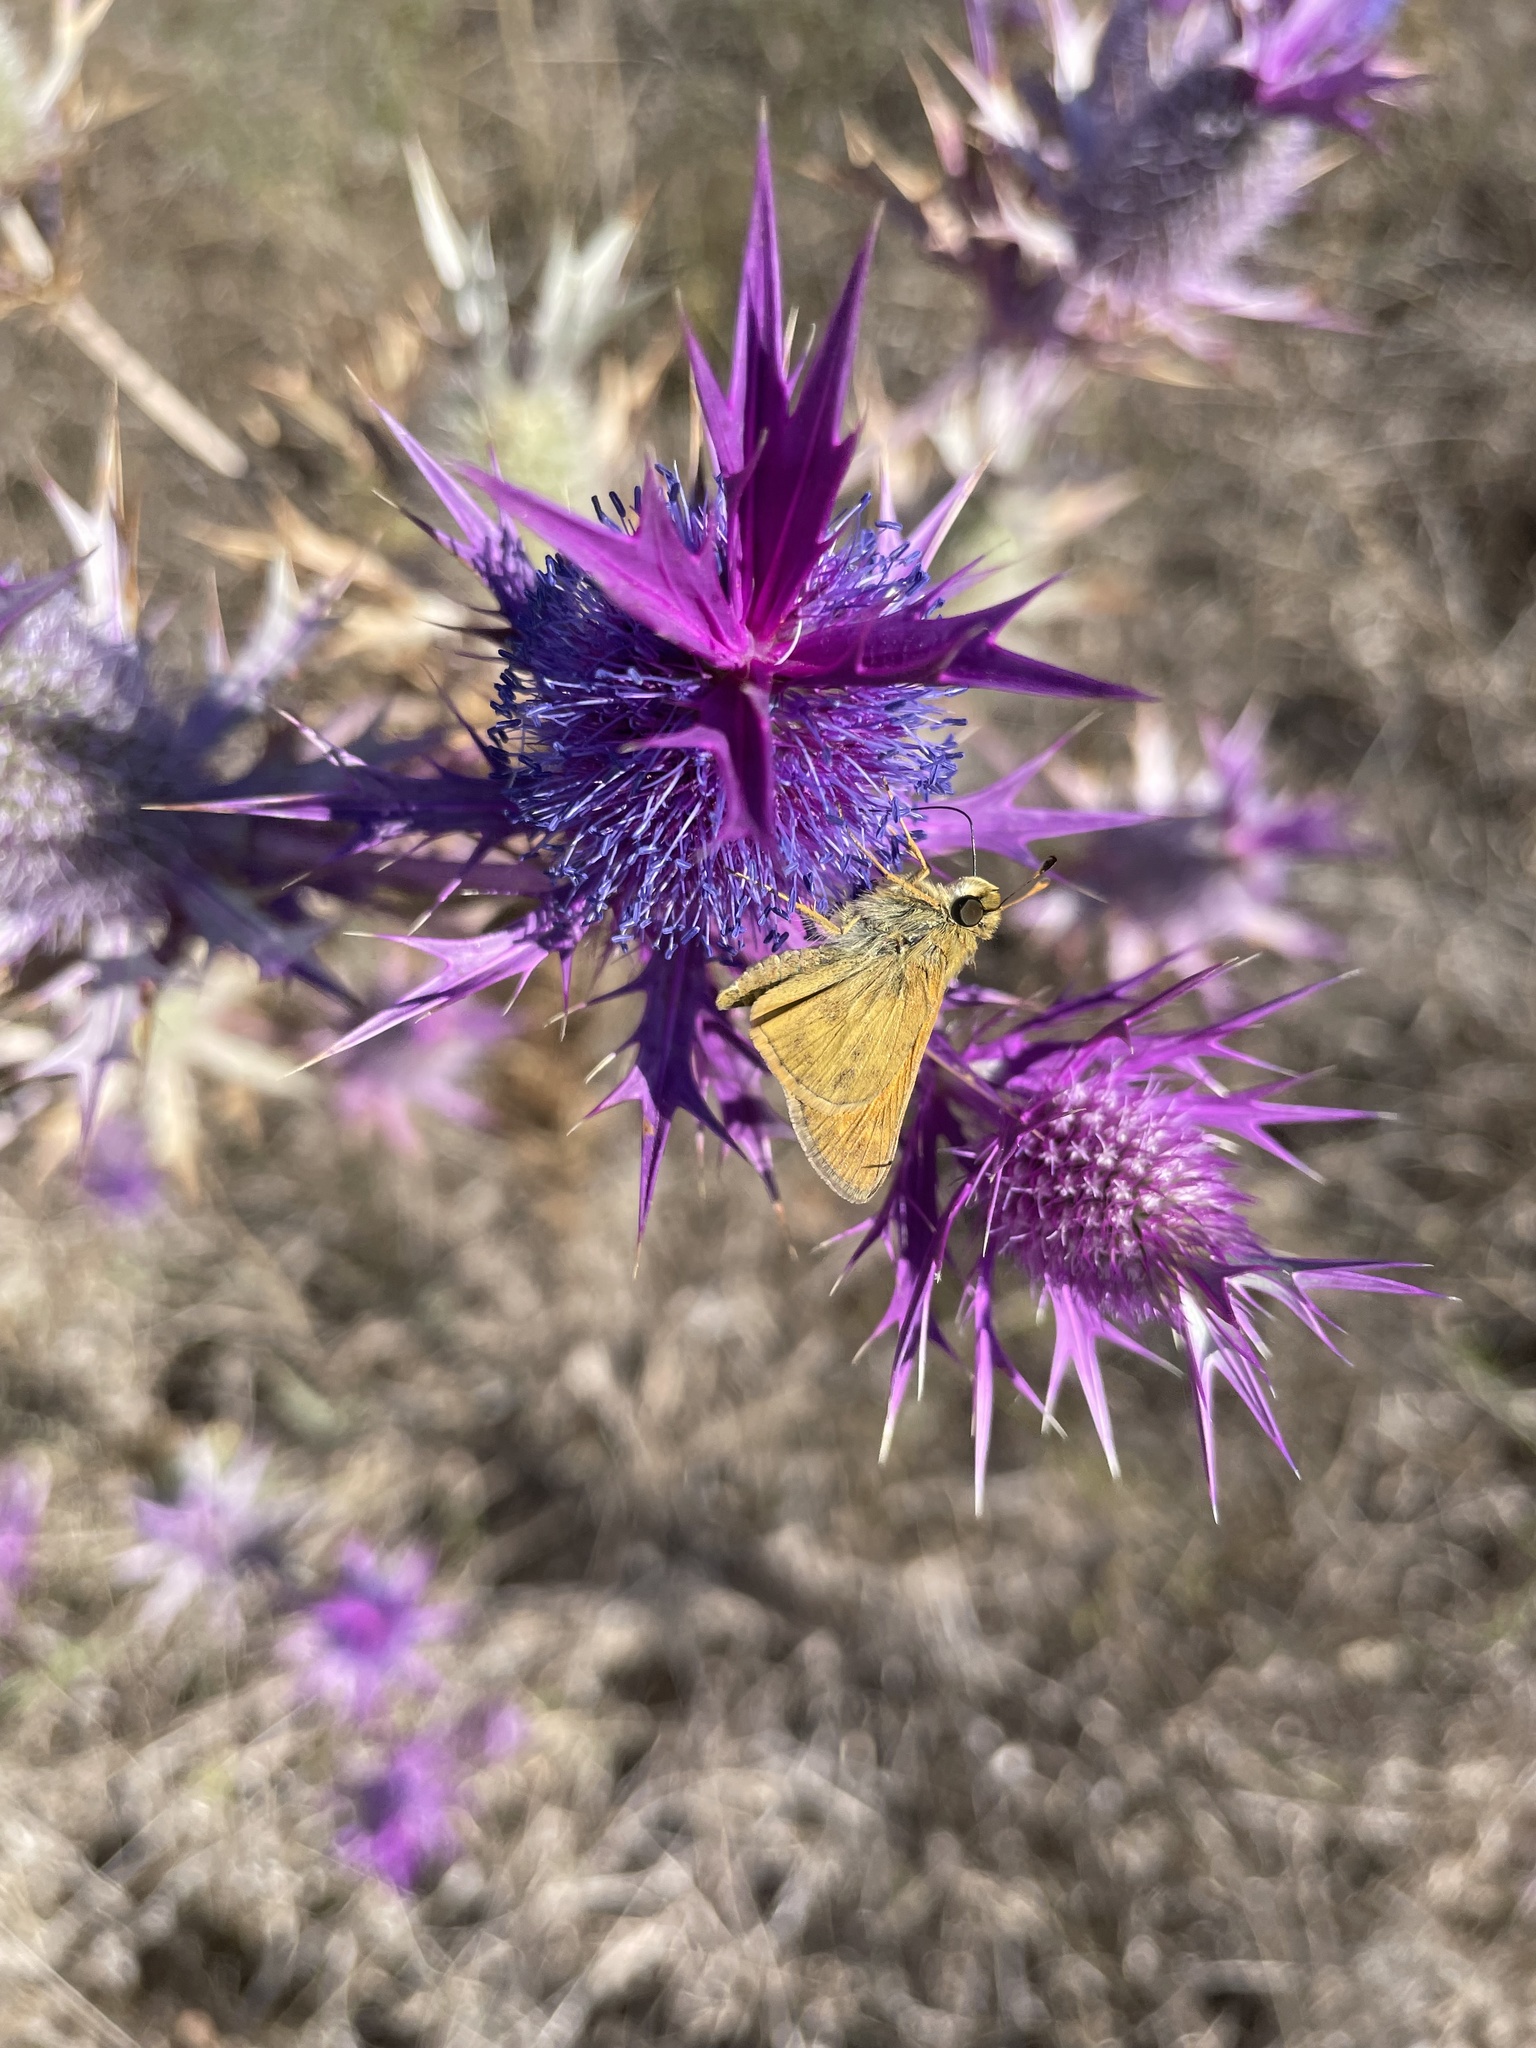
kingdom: Animalia
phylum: Arthropoda
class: Insecta
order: Lepidoptera
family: Hesperiidae
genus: Atalopedes
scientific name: Atalopedes
